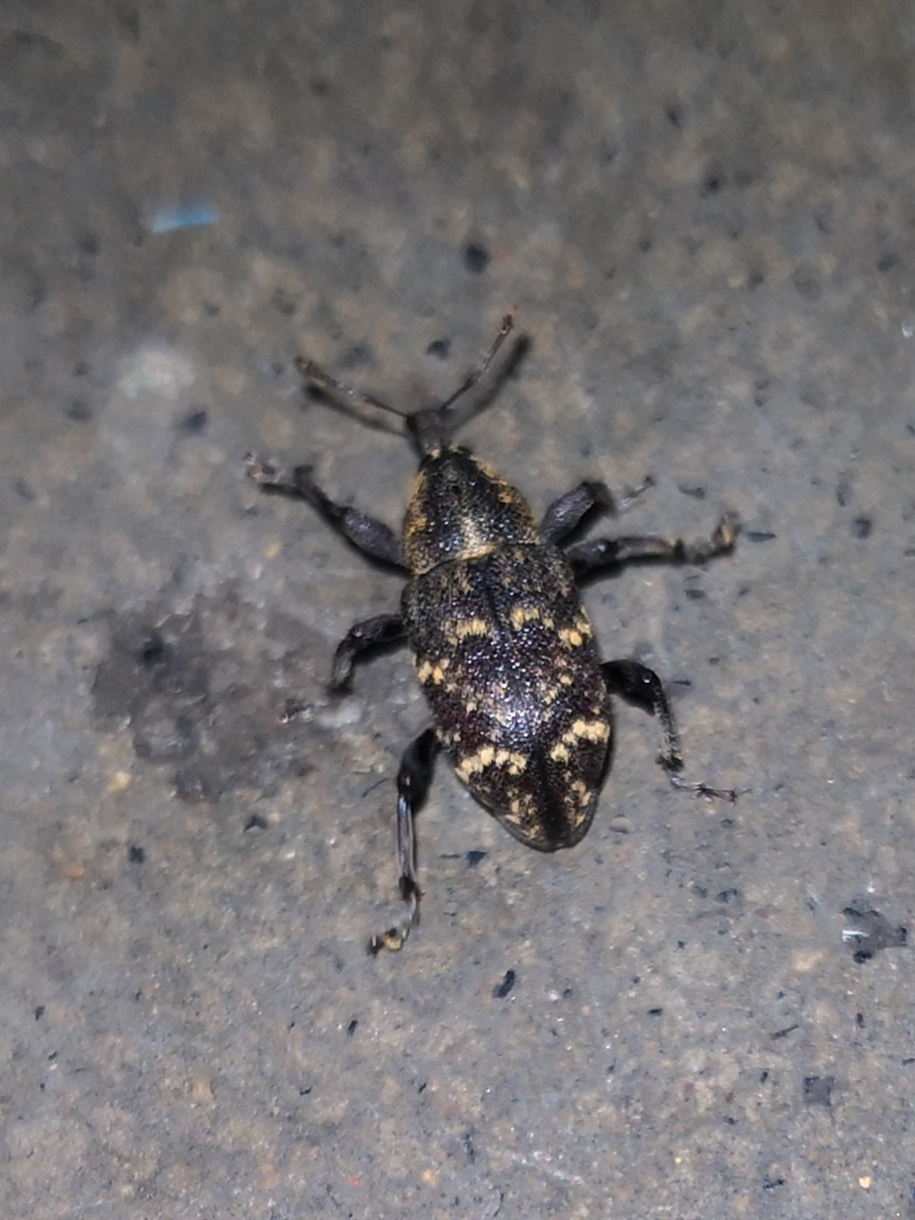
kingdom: Animalia
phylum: Arthropoda
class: Insecta
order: Coleoptera
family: Curculionidae
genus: Hylobius
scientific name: Hylobius abietis
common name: Large pine weevil
